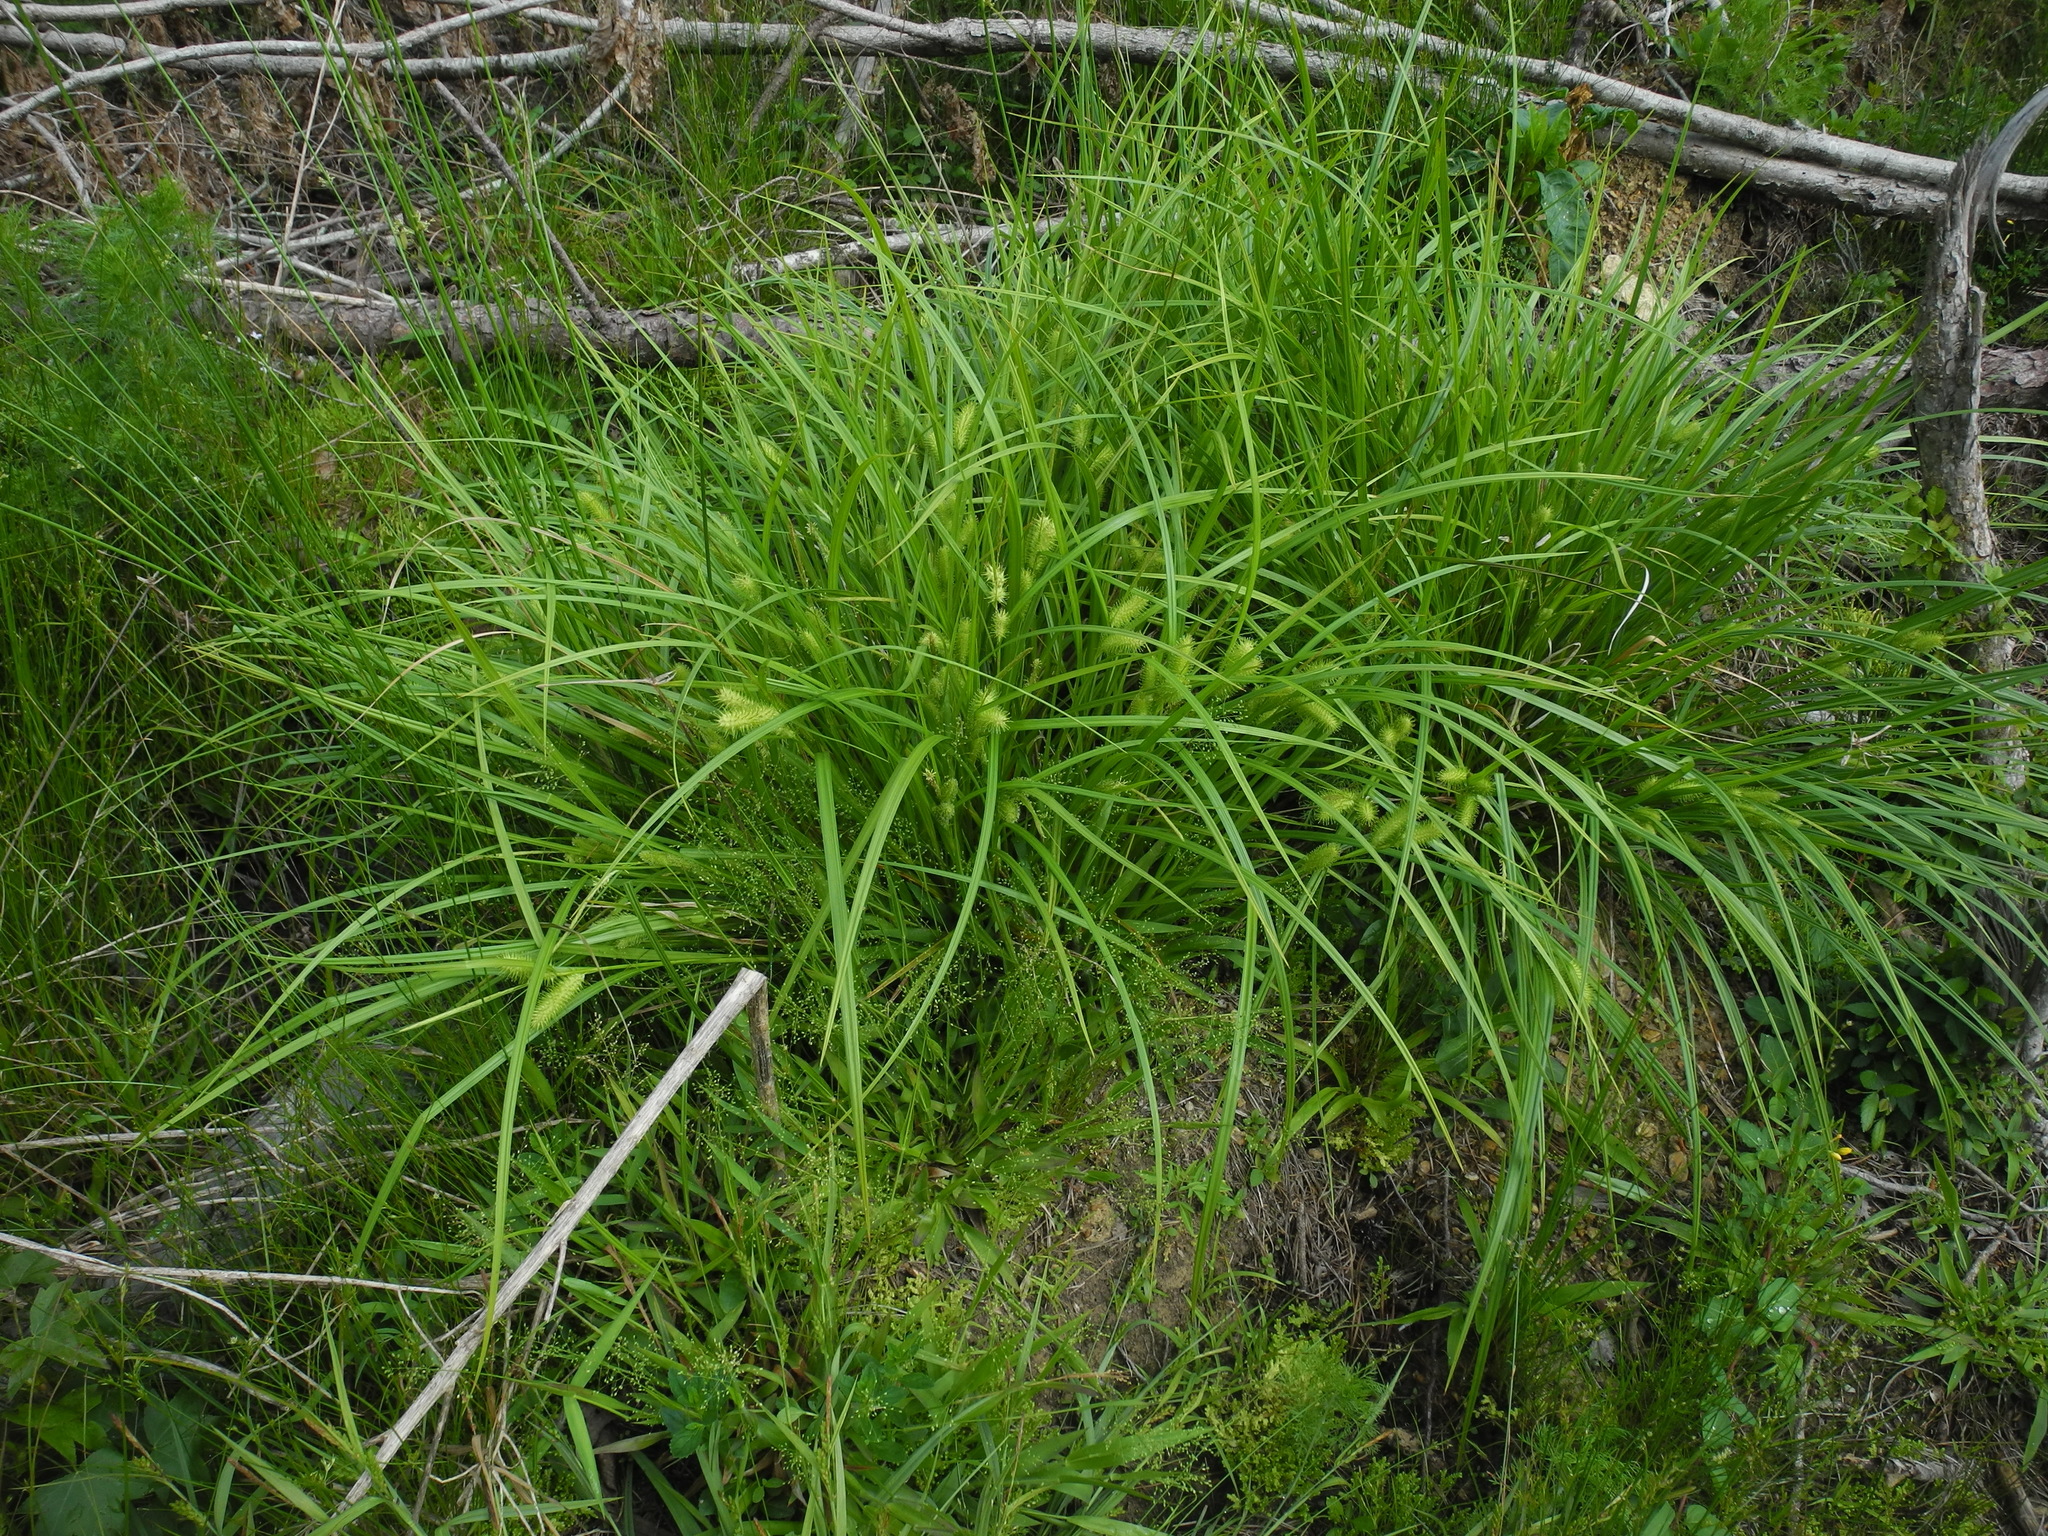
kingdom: Plantae
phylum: Tracheophyta
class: Liliopsida
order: Poales
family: Cyperaceae
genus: Carex
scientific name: Carex lurida
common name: Sallow sedge
